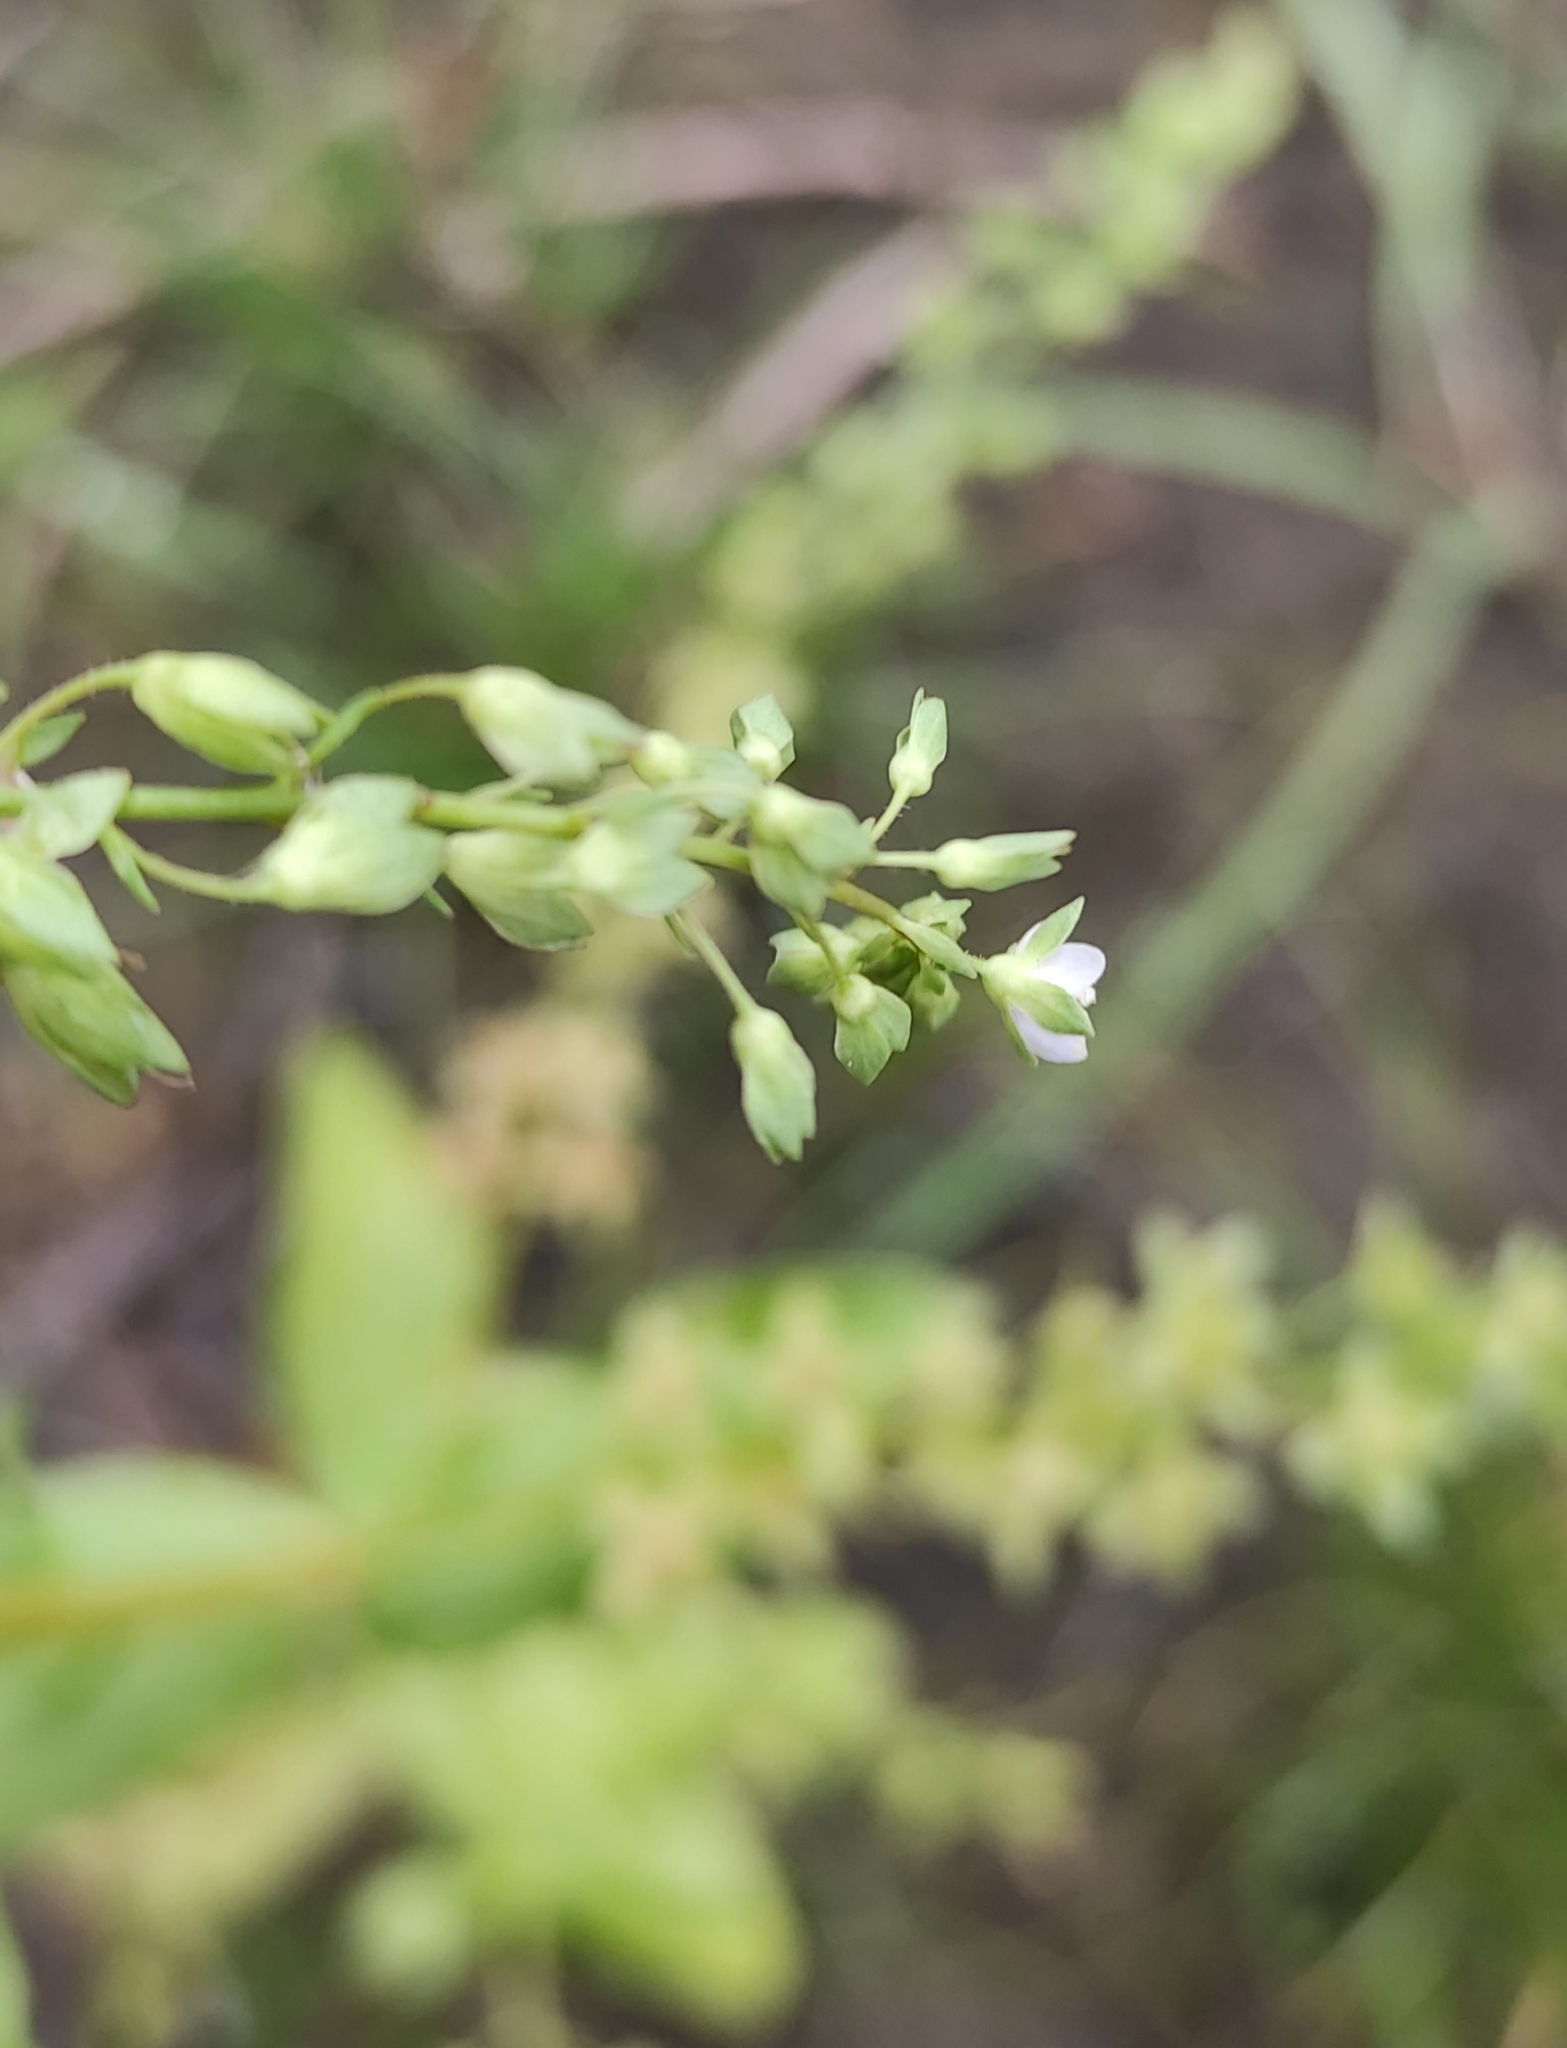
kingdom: Plantae
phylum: Tracheophyta
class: Magnoliopsida
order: Lamiales
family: Plantaginaceae
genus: Veronica
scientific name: Veronica anagallis-aquatica
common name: Water speedwell
